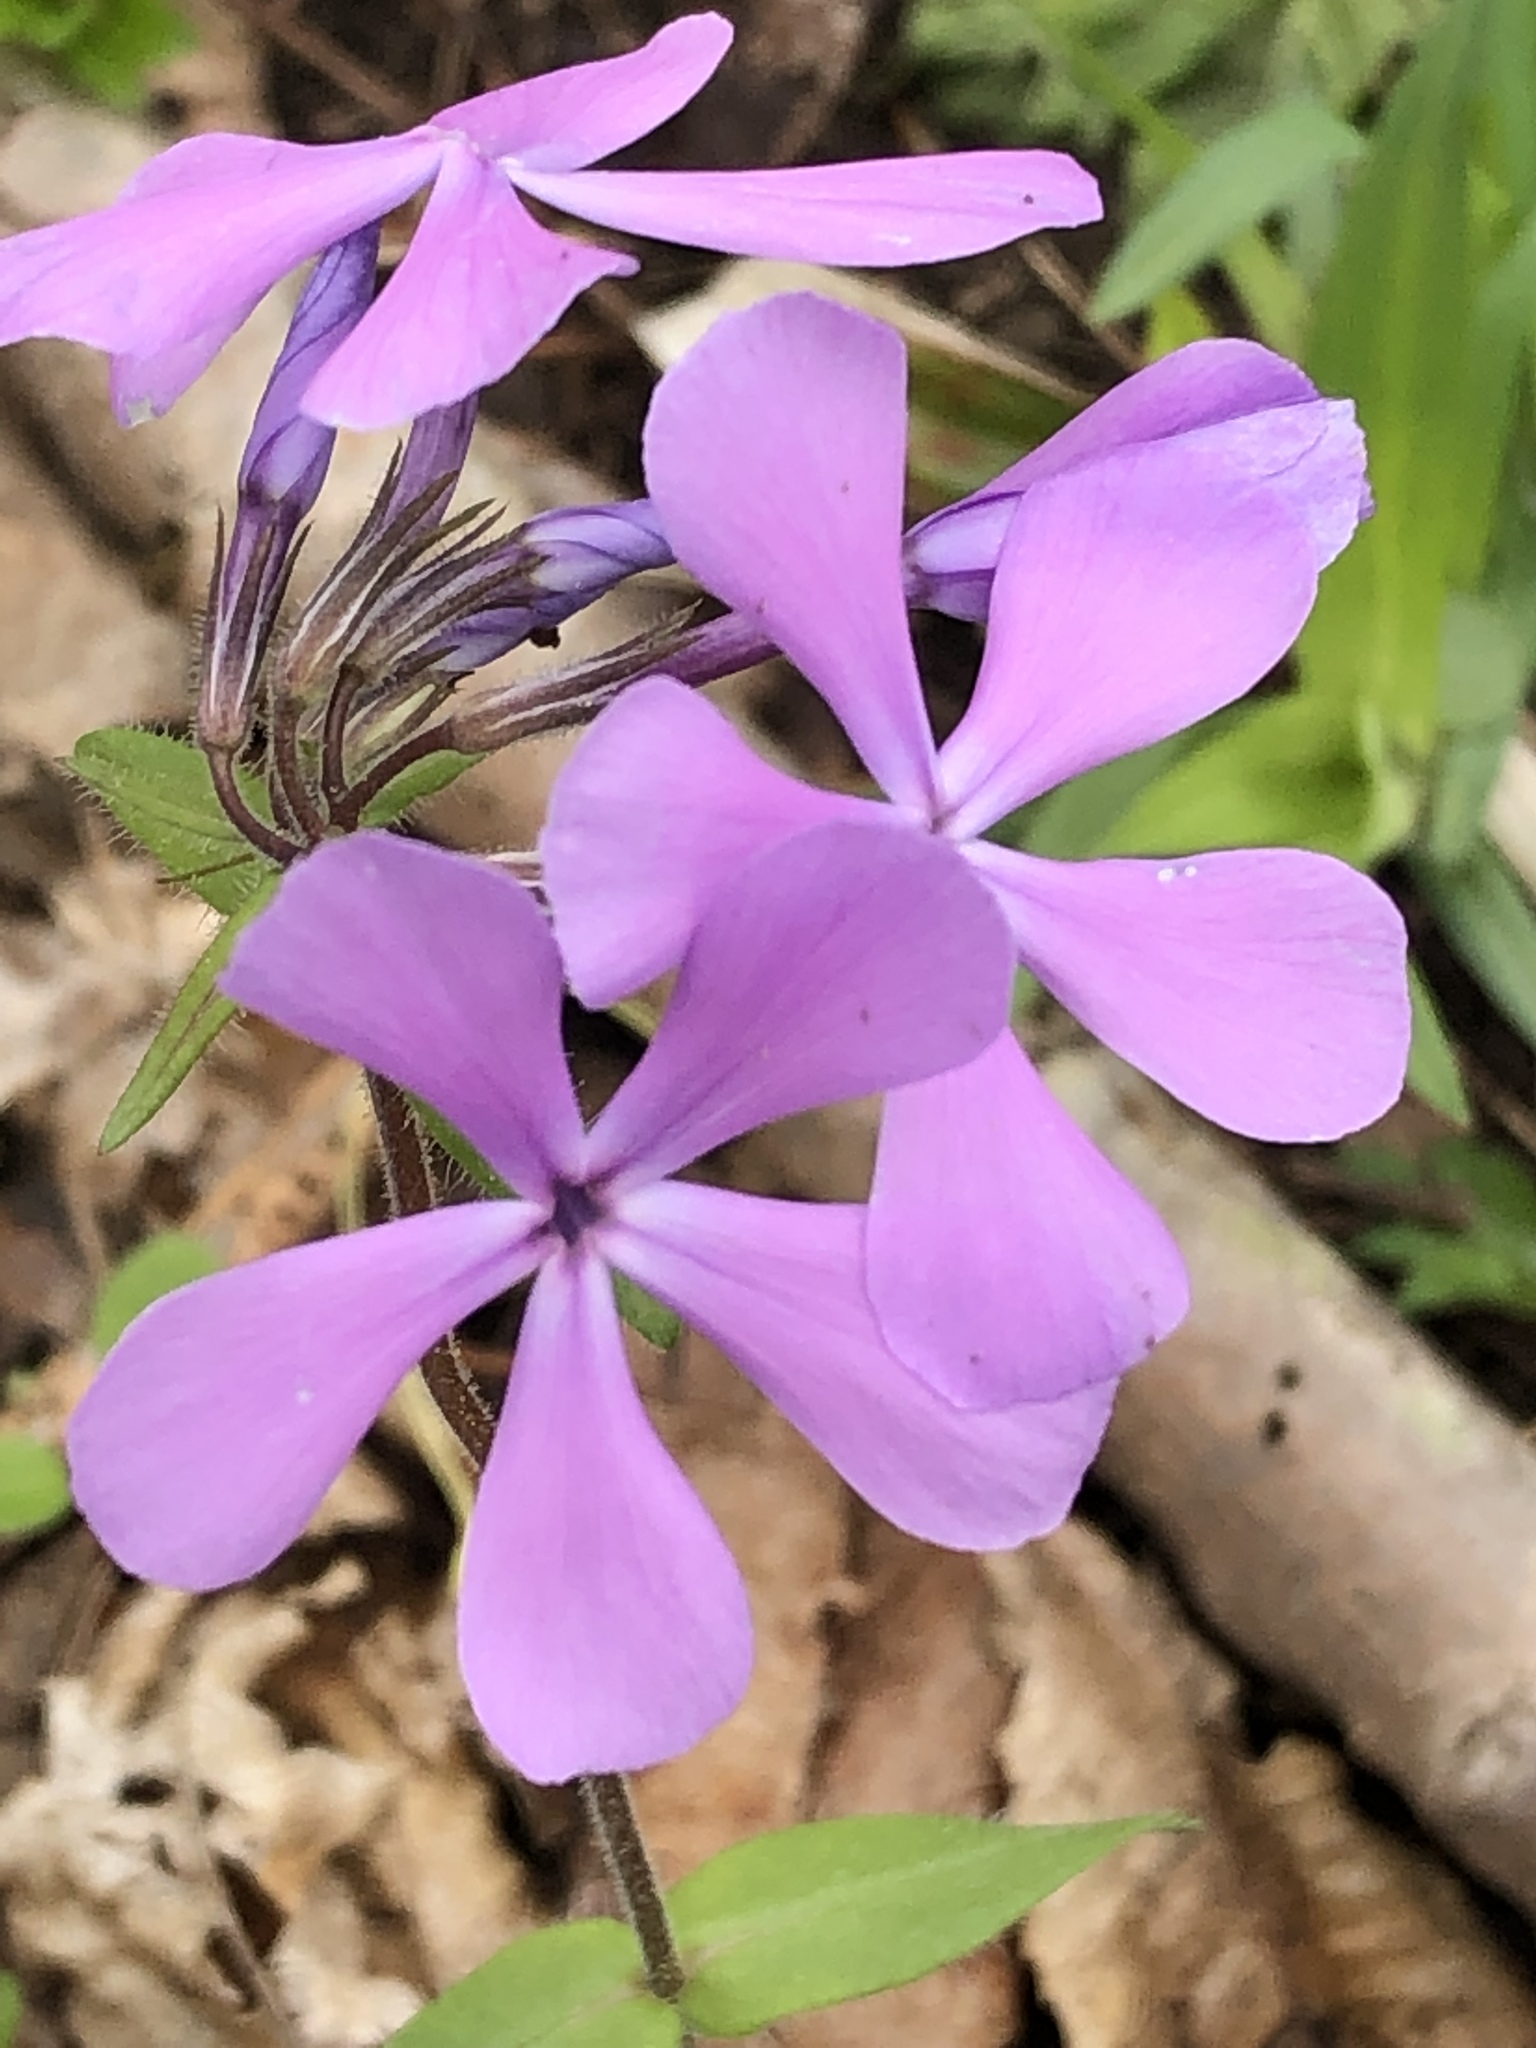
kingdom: Plantae
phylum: Tracheophyta
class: Magnoliopsida
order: Ericales
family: Polemoniaceae
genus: Phlox
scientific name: Phlox divaricata
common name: Blue phlox
